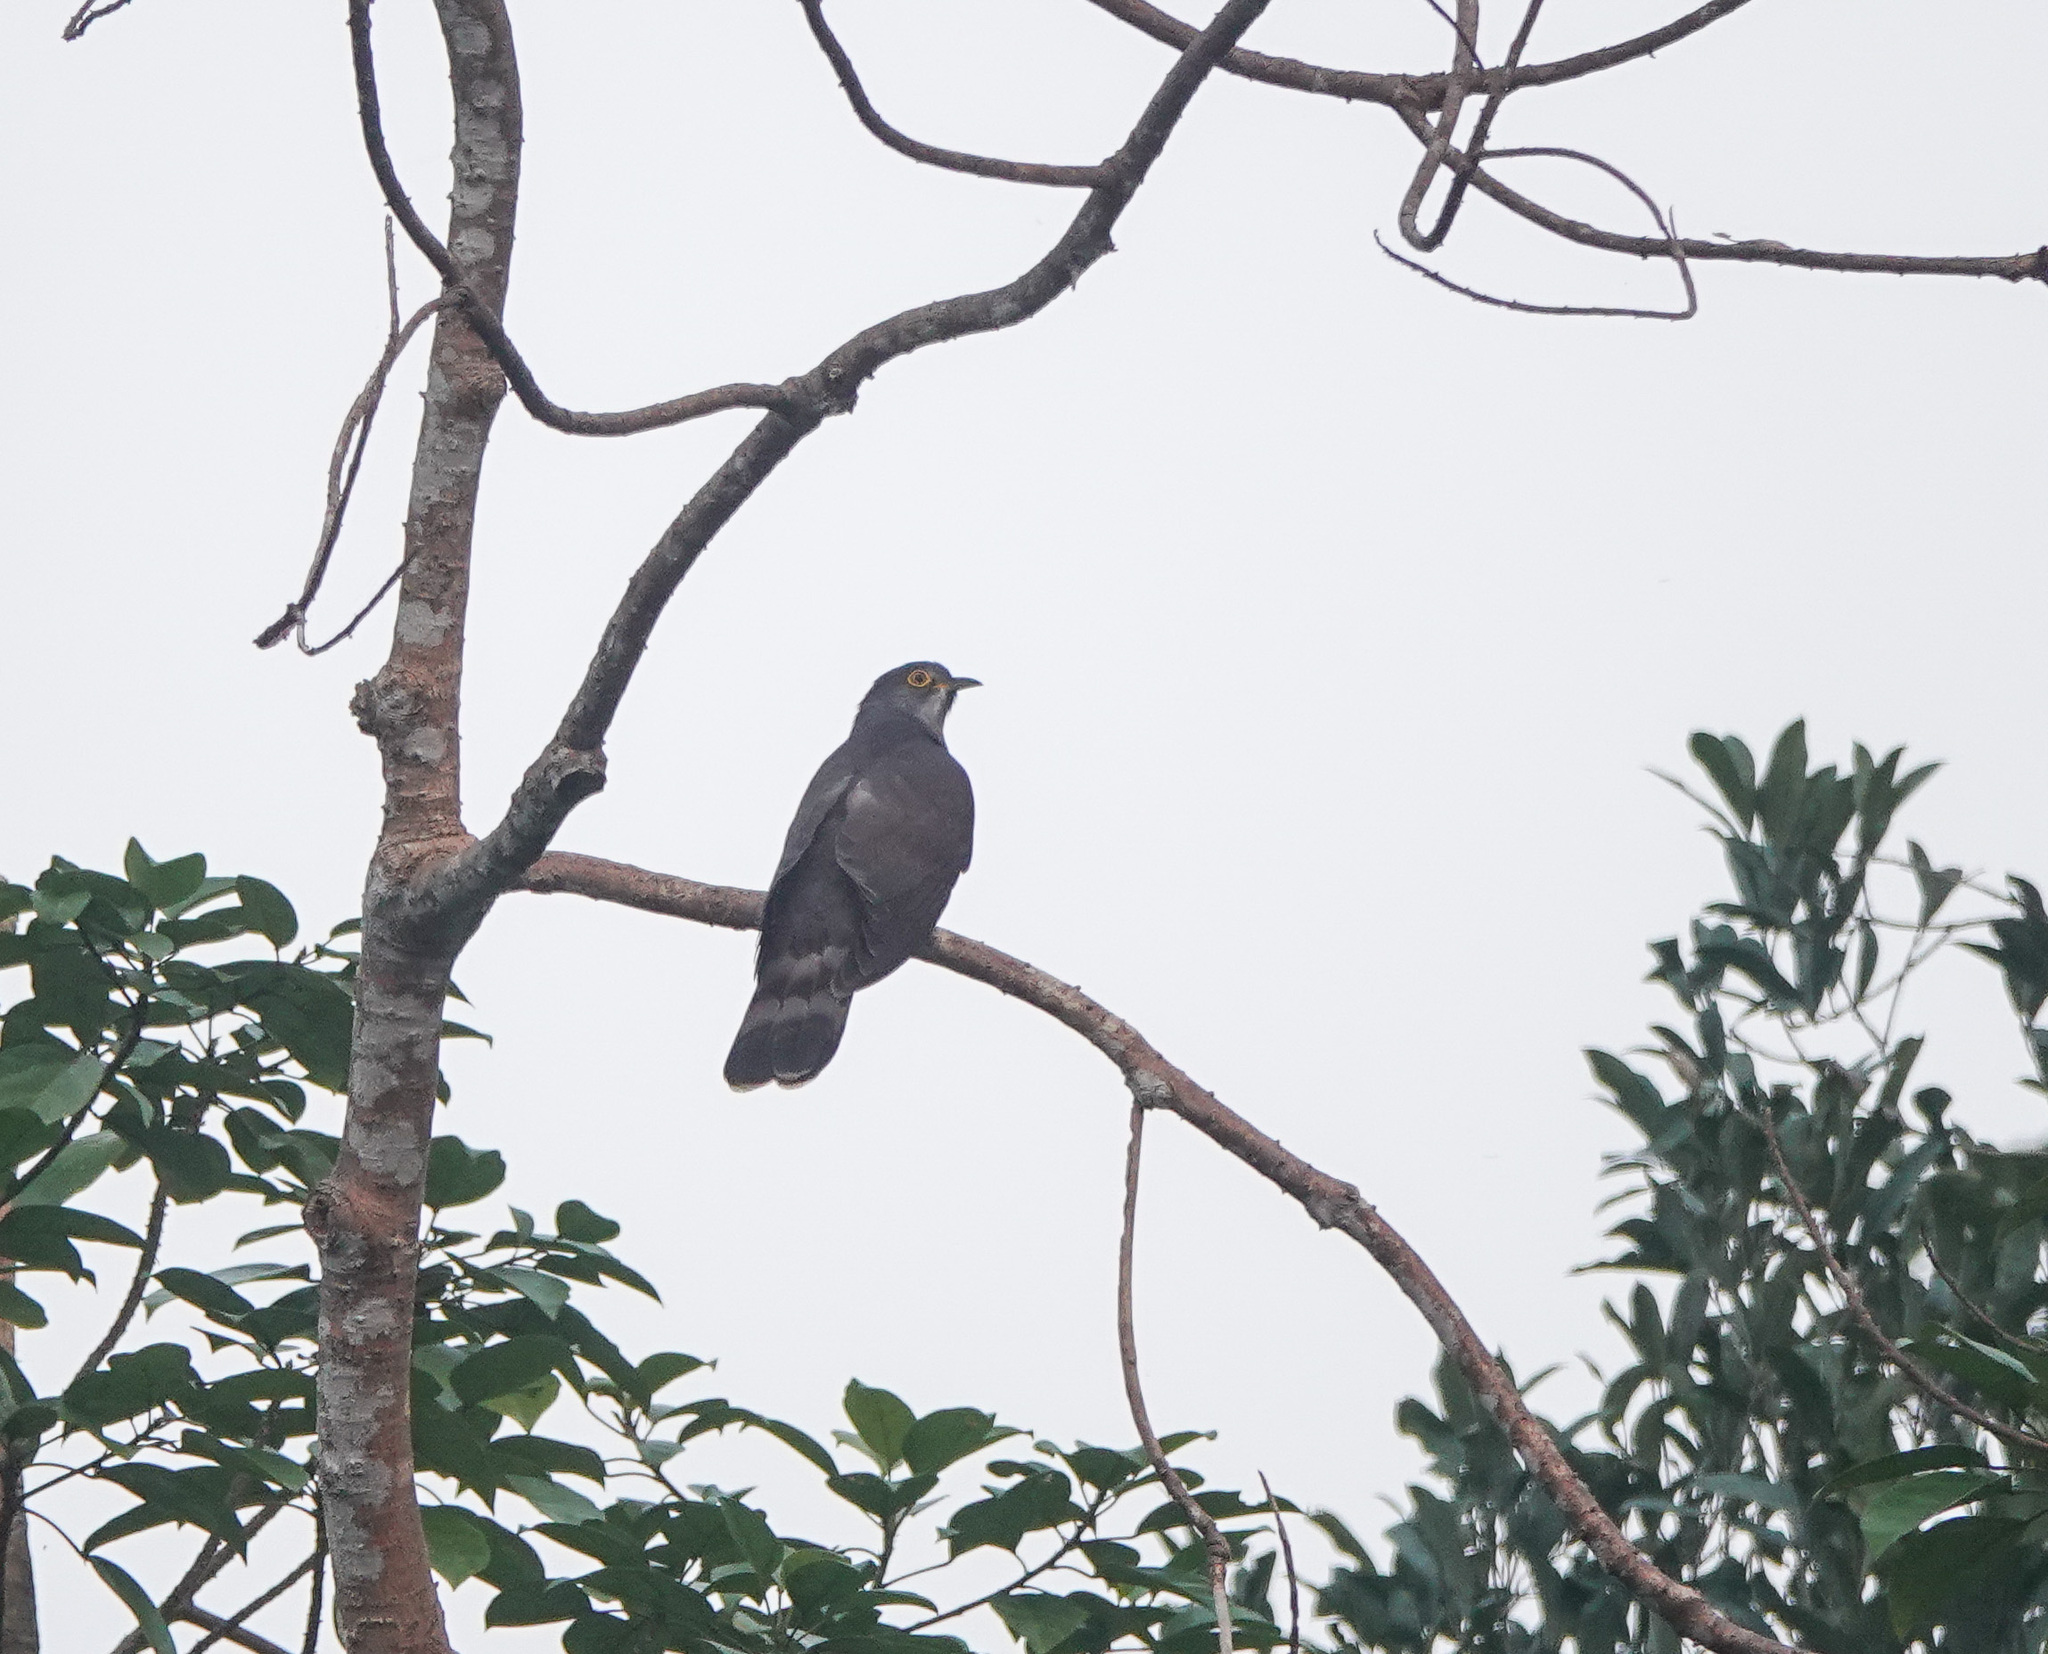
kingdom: Animalia
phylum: Chordata
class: Aves
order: Cuculiformes
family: Cuculidae
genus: Cuculus
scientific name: Cuculus sparverioides
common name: Large hawk cuckoo
